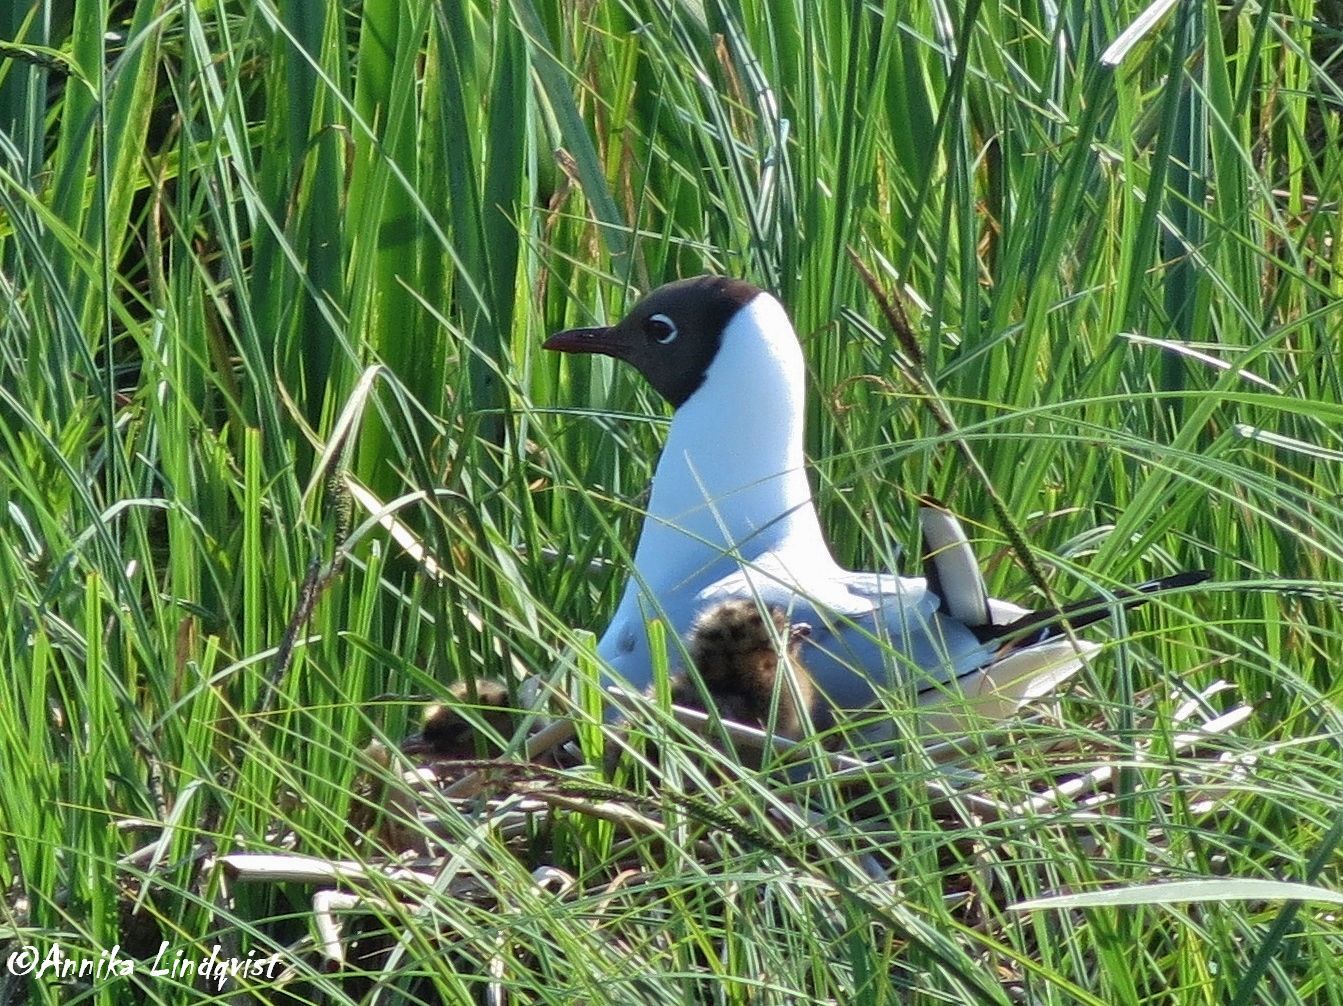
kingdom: Animalia
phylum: Chordata
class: Aves
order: Charadriiformes
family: Laridae
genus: Chroicocephalus
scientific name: Chroicocephalus ridibundus
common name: Black-headed gull
